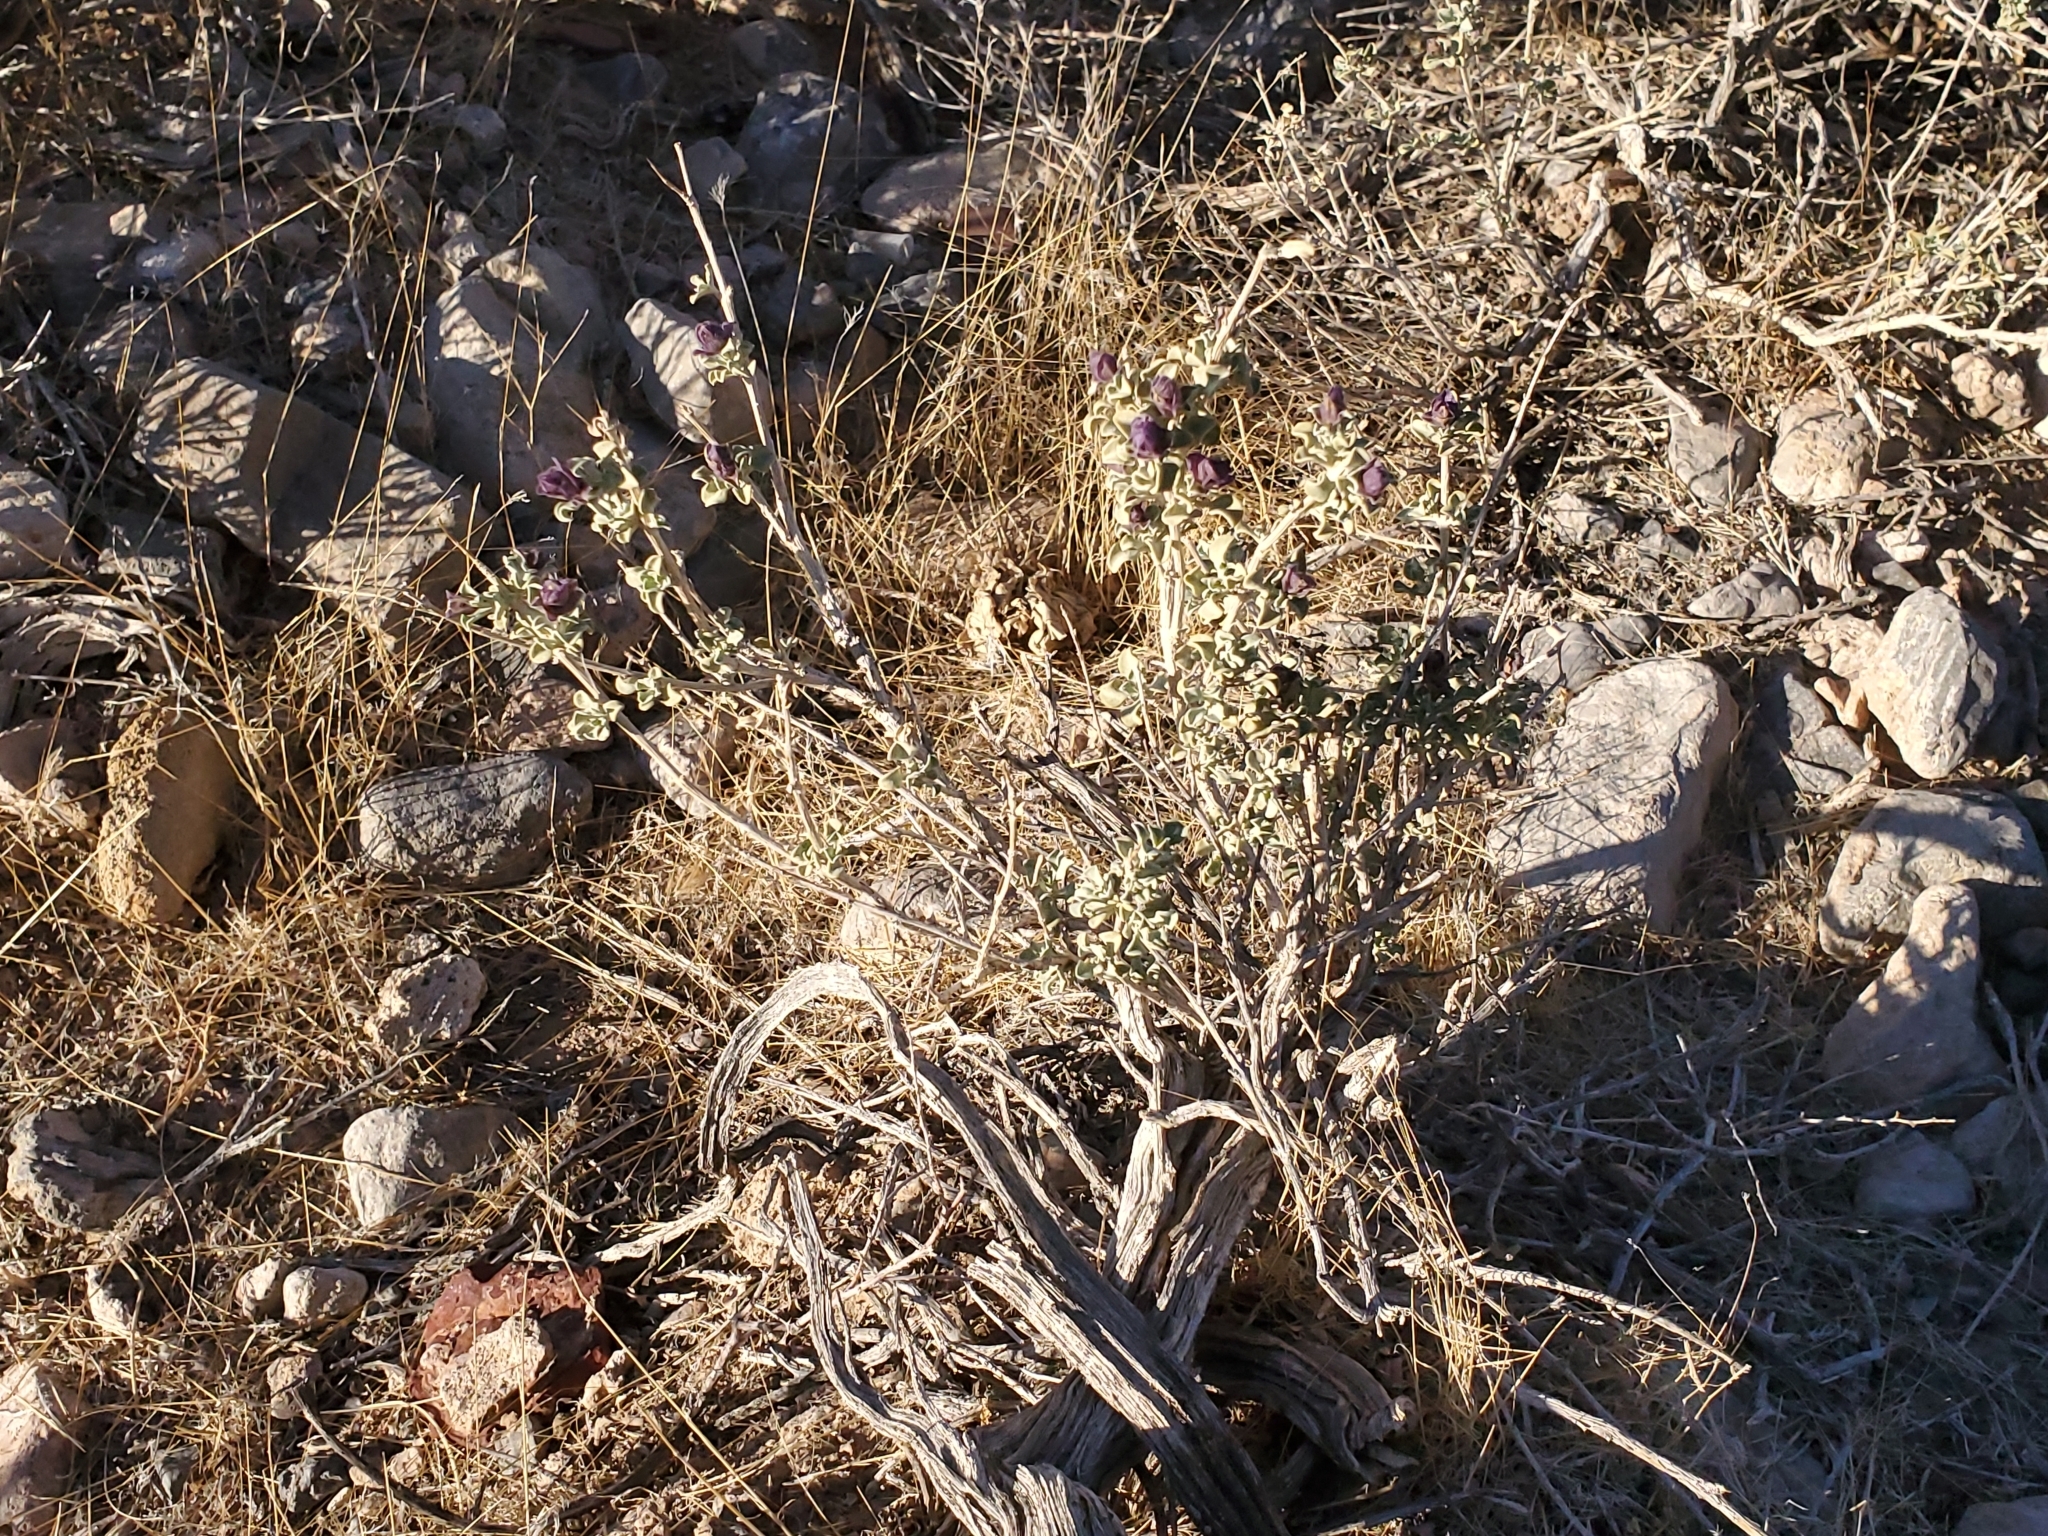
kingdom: Plantae
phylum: Tracheophyta
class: Magnoliopsida
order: Lamiales
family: Lamiaceae
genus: Salvia
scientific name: Salvia dorrii
